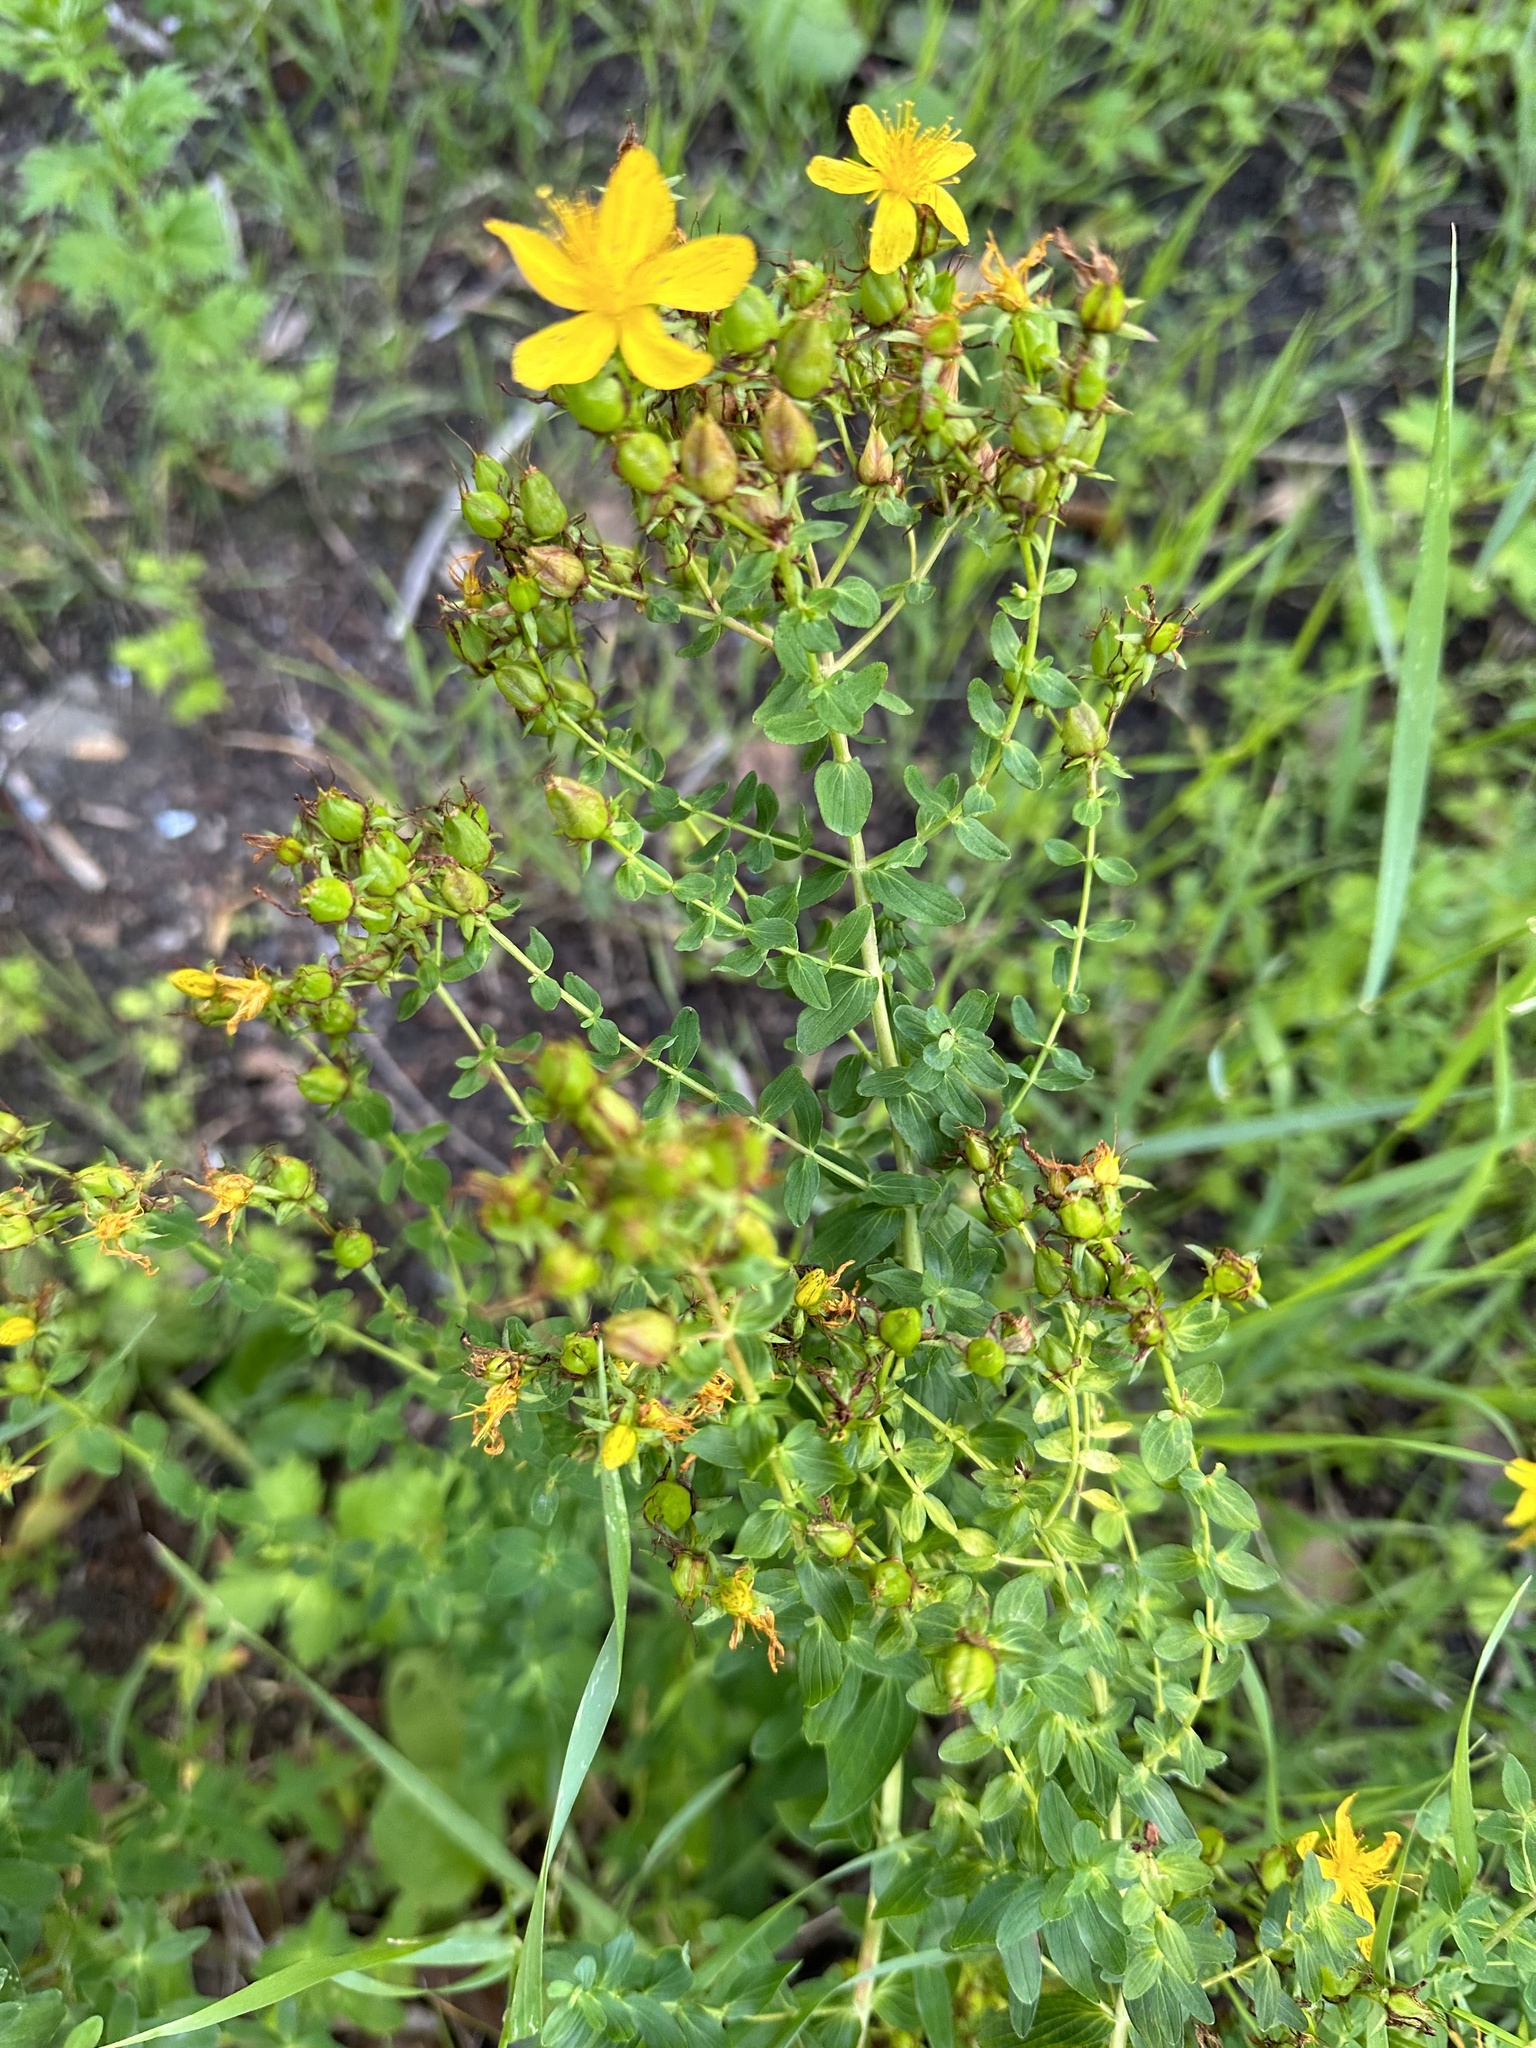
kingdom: Plantae
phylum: Tracheophyta
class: Magnoliopsida
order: Malpighiales
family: Hypericaceae
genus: Hypericum
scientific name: Hypericum perforatum
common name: Common st. johnswort
